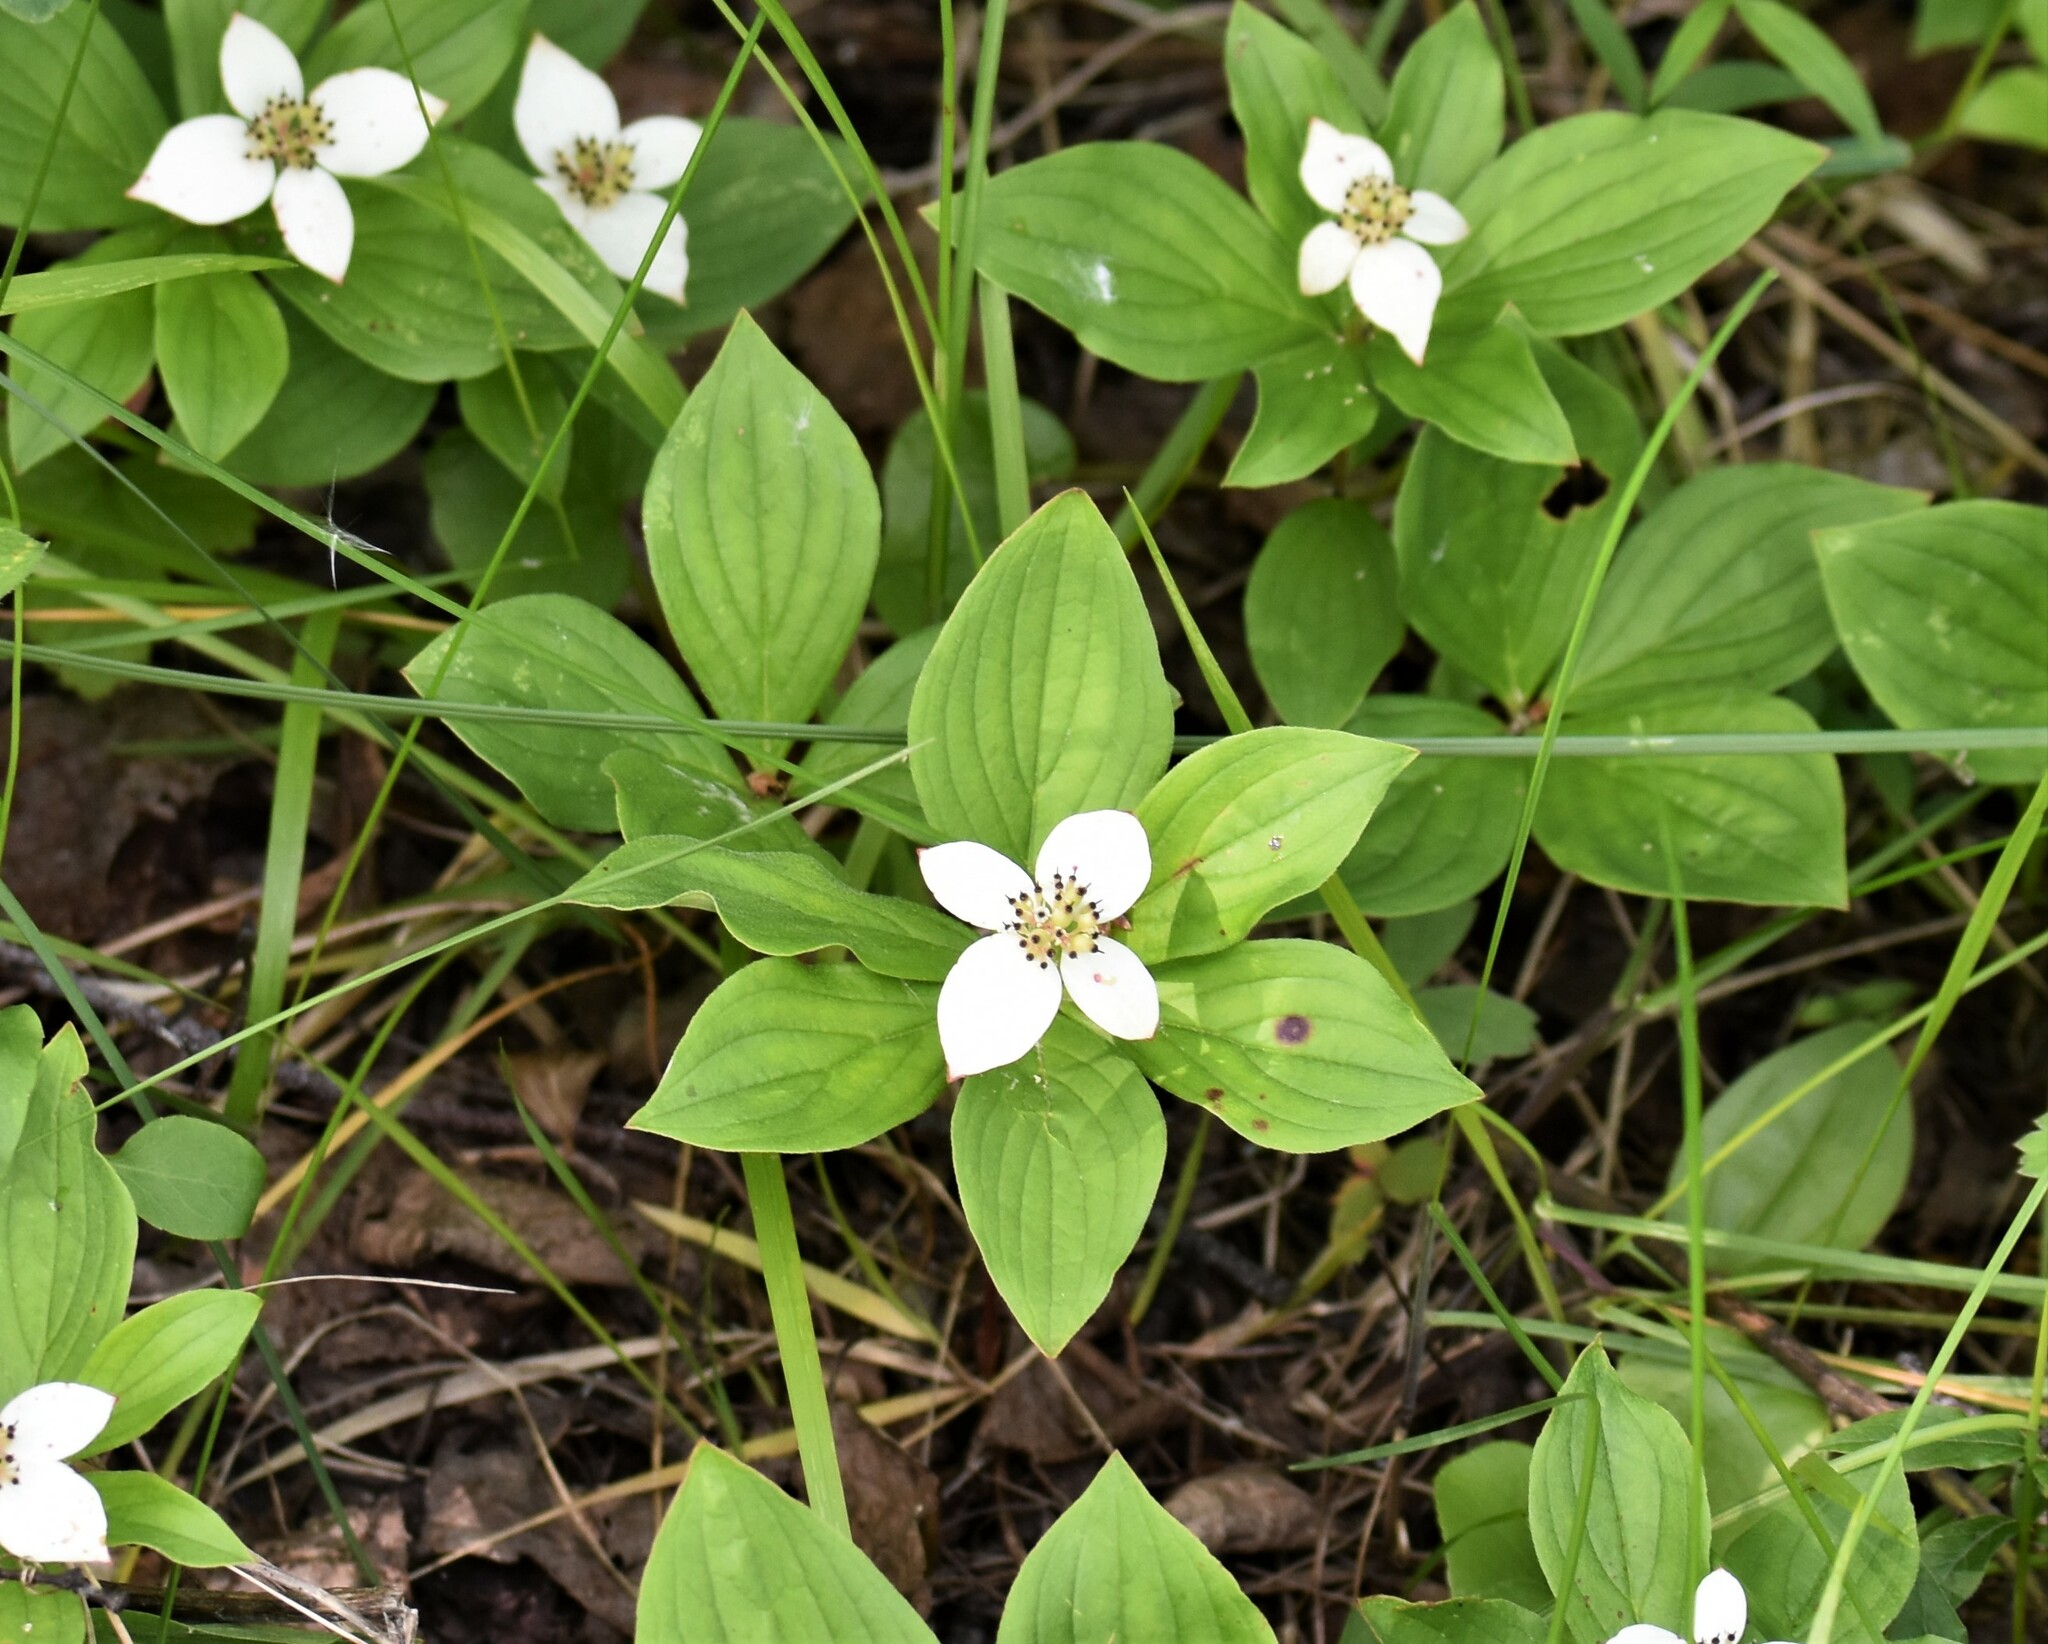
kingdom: Plantae
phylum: Tracheophyta
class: Magnoliopsida
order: Cornales
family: Cornaceae
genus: Cornus
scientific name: Cornus canadensis
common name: Creeping dogwood
